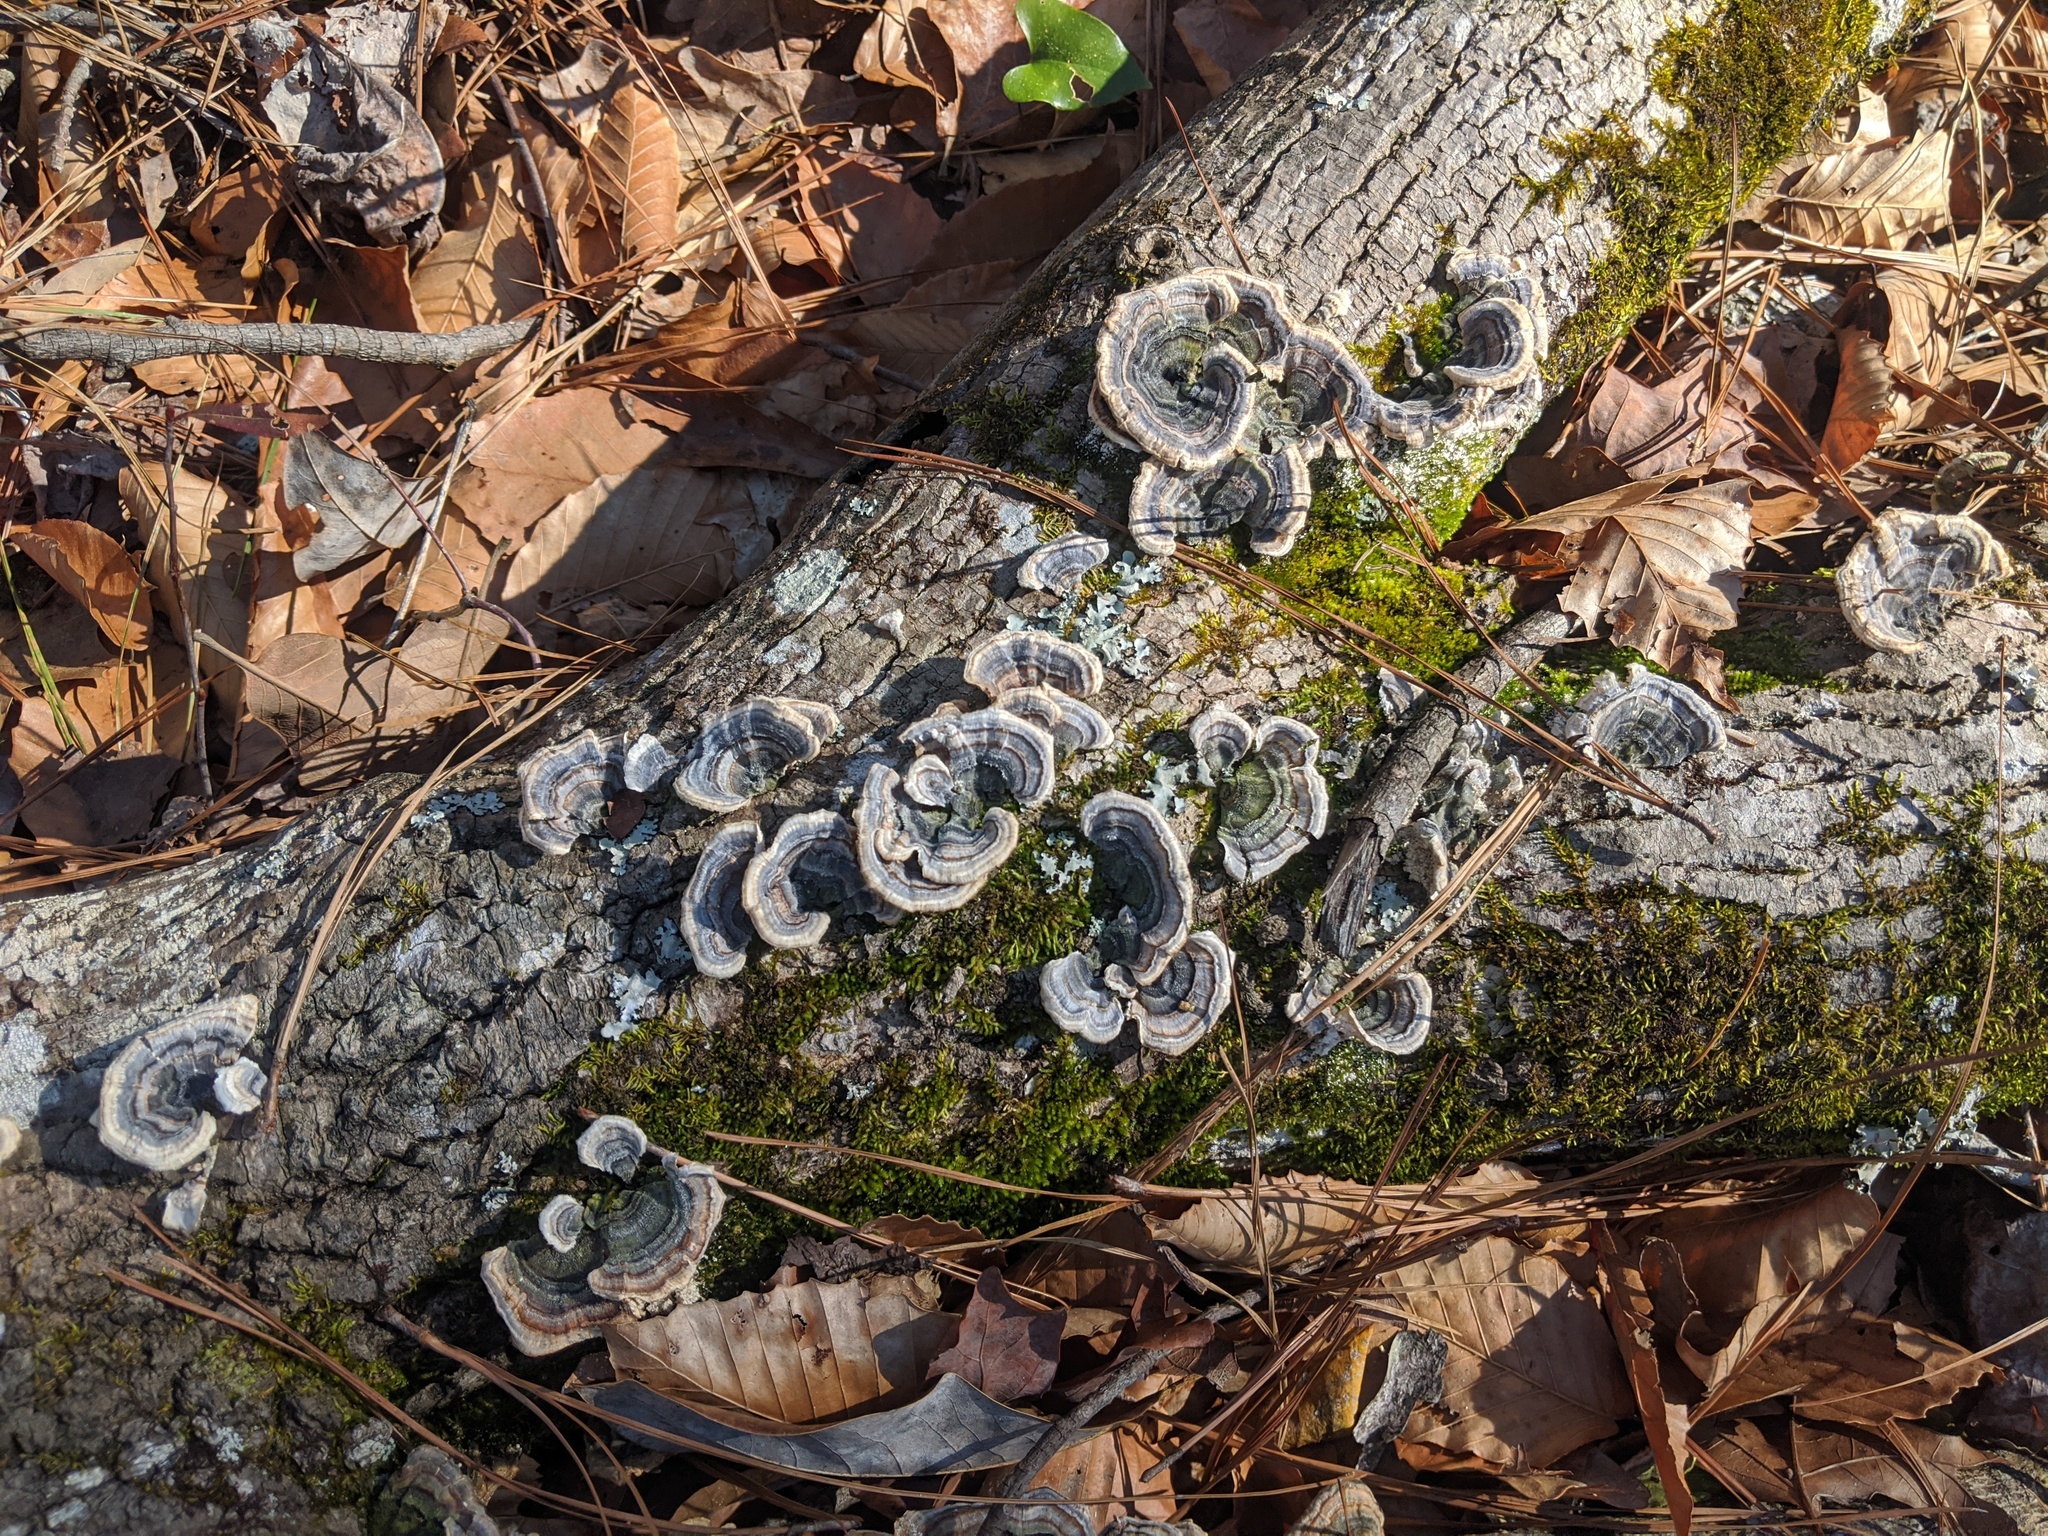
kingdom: Fungi
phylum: Basidiomycota
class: Agaricomycetes
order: Polyporales
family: Polyporaceae
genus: Trametes
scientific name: Trametes versicolor
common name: Turkeytail
